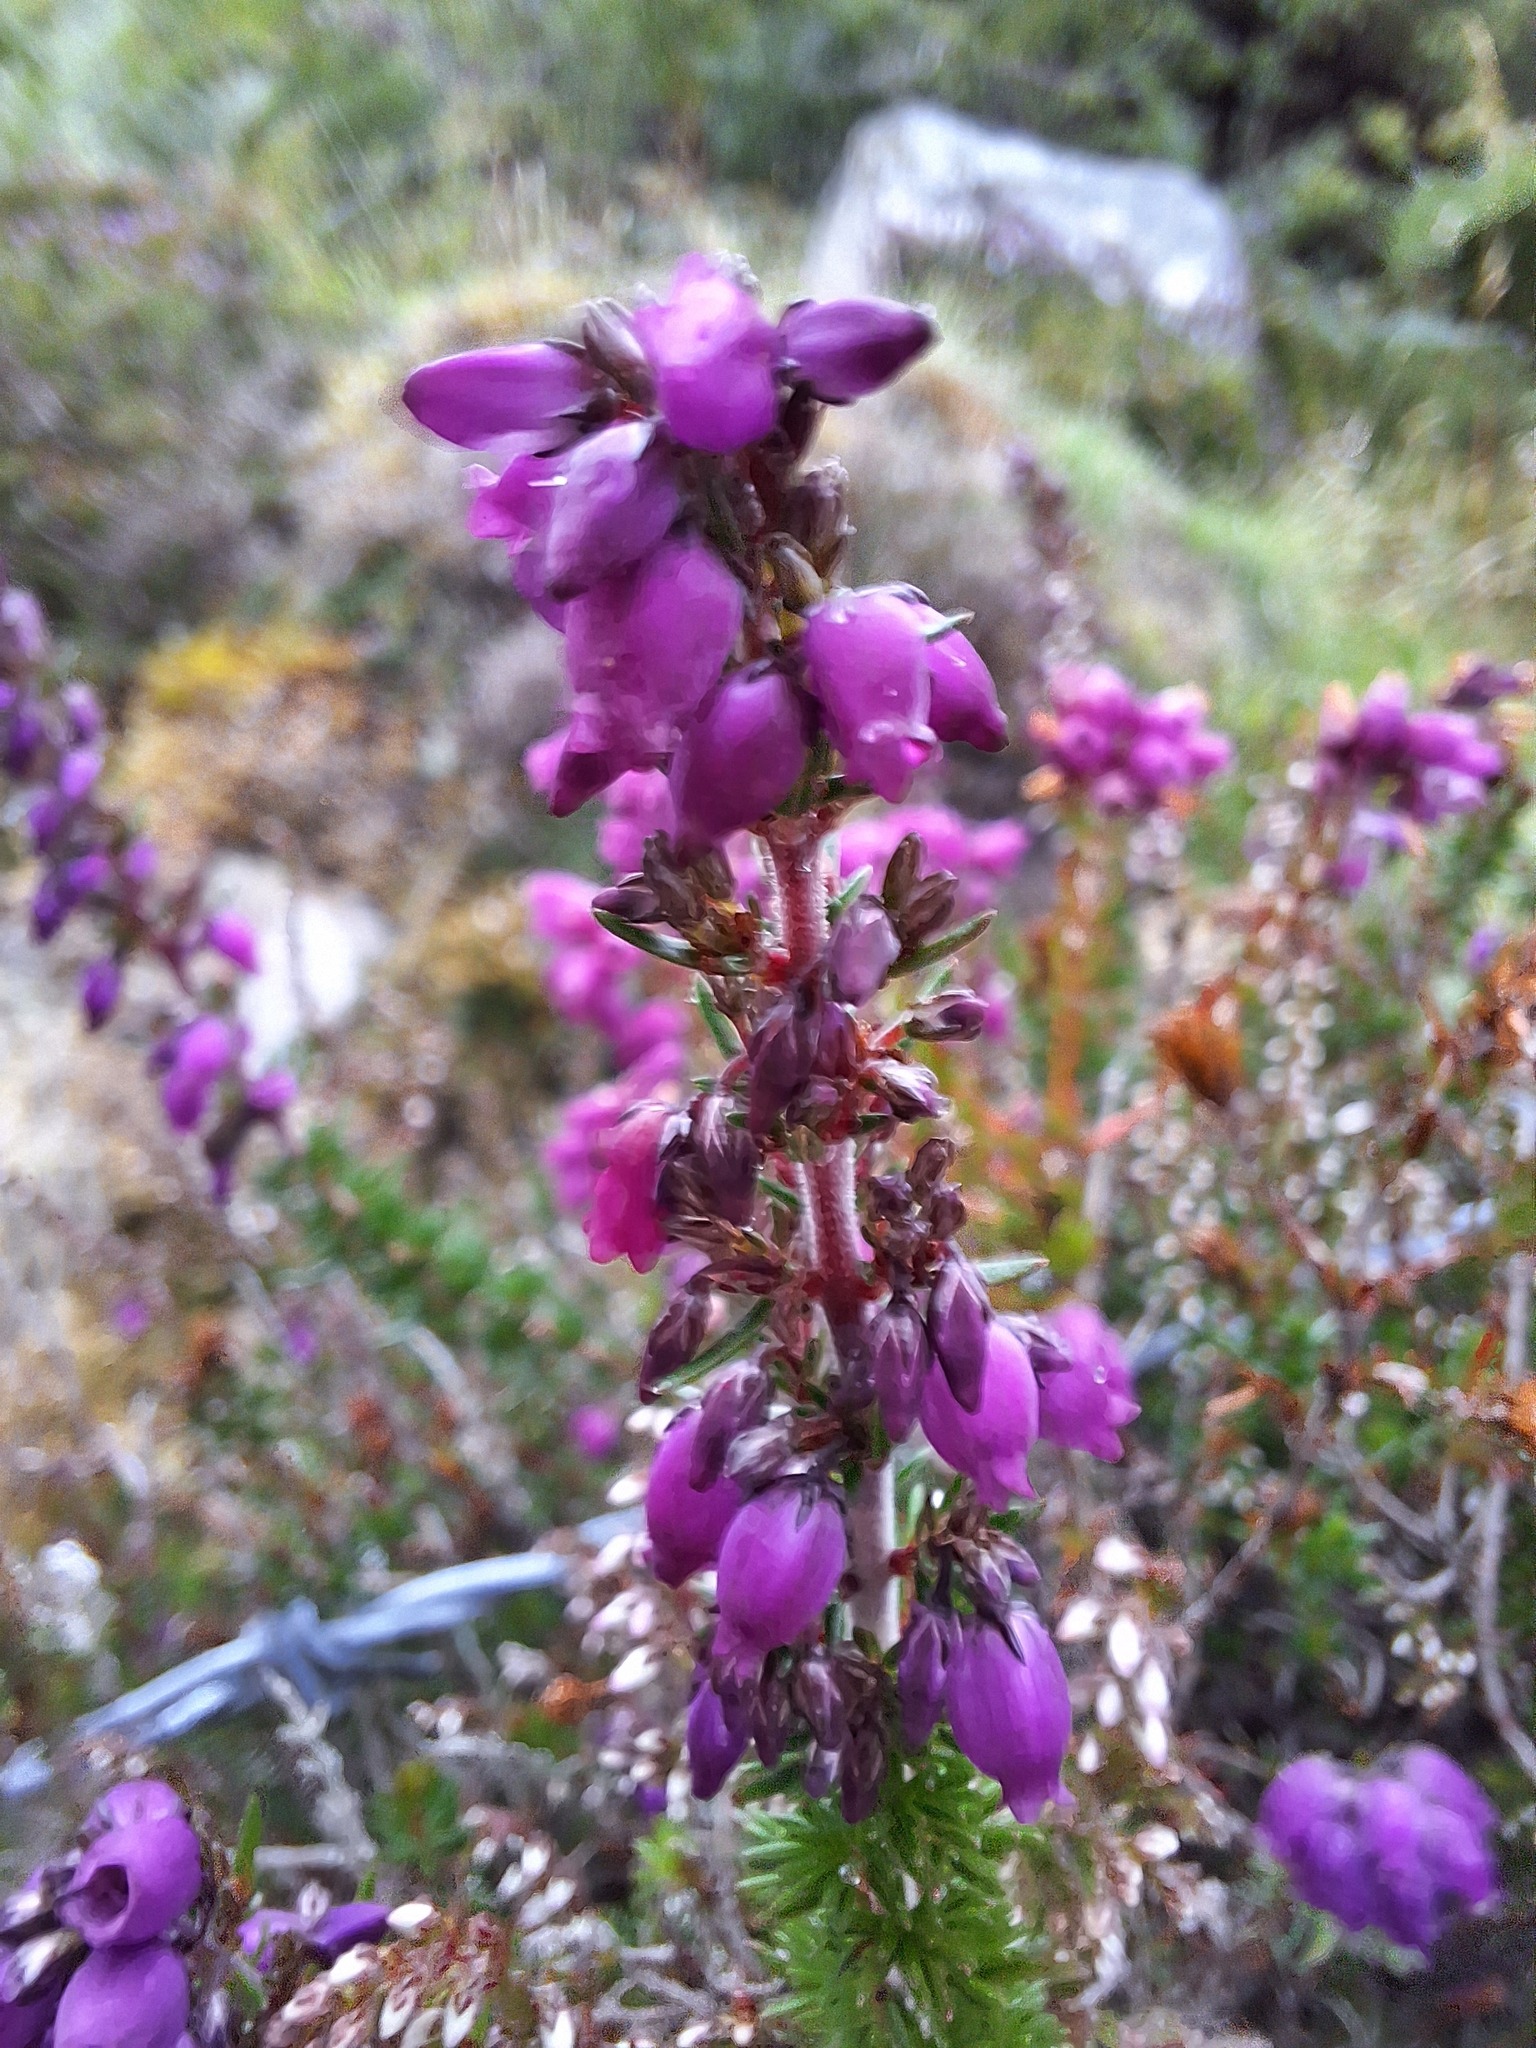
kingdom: Plantae
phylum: Tracheophyta
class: Magnoliopsida
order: Ericales
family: Ericaceae
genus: Erica
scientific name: Erica cinerea
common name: Bell heather
